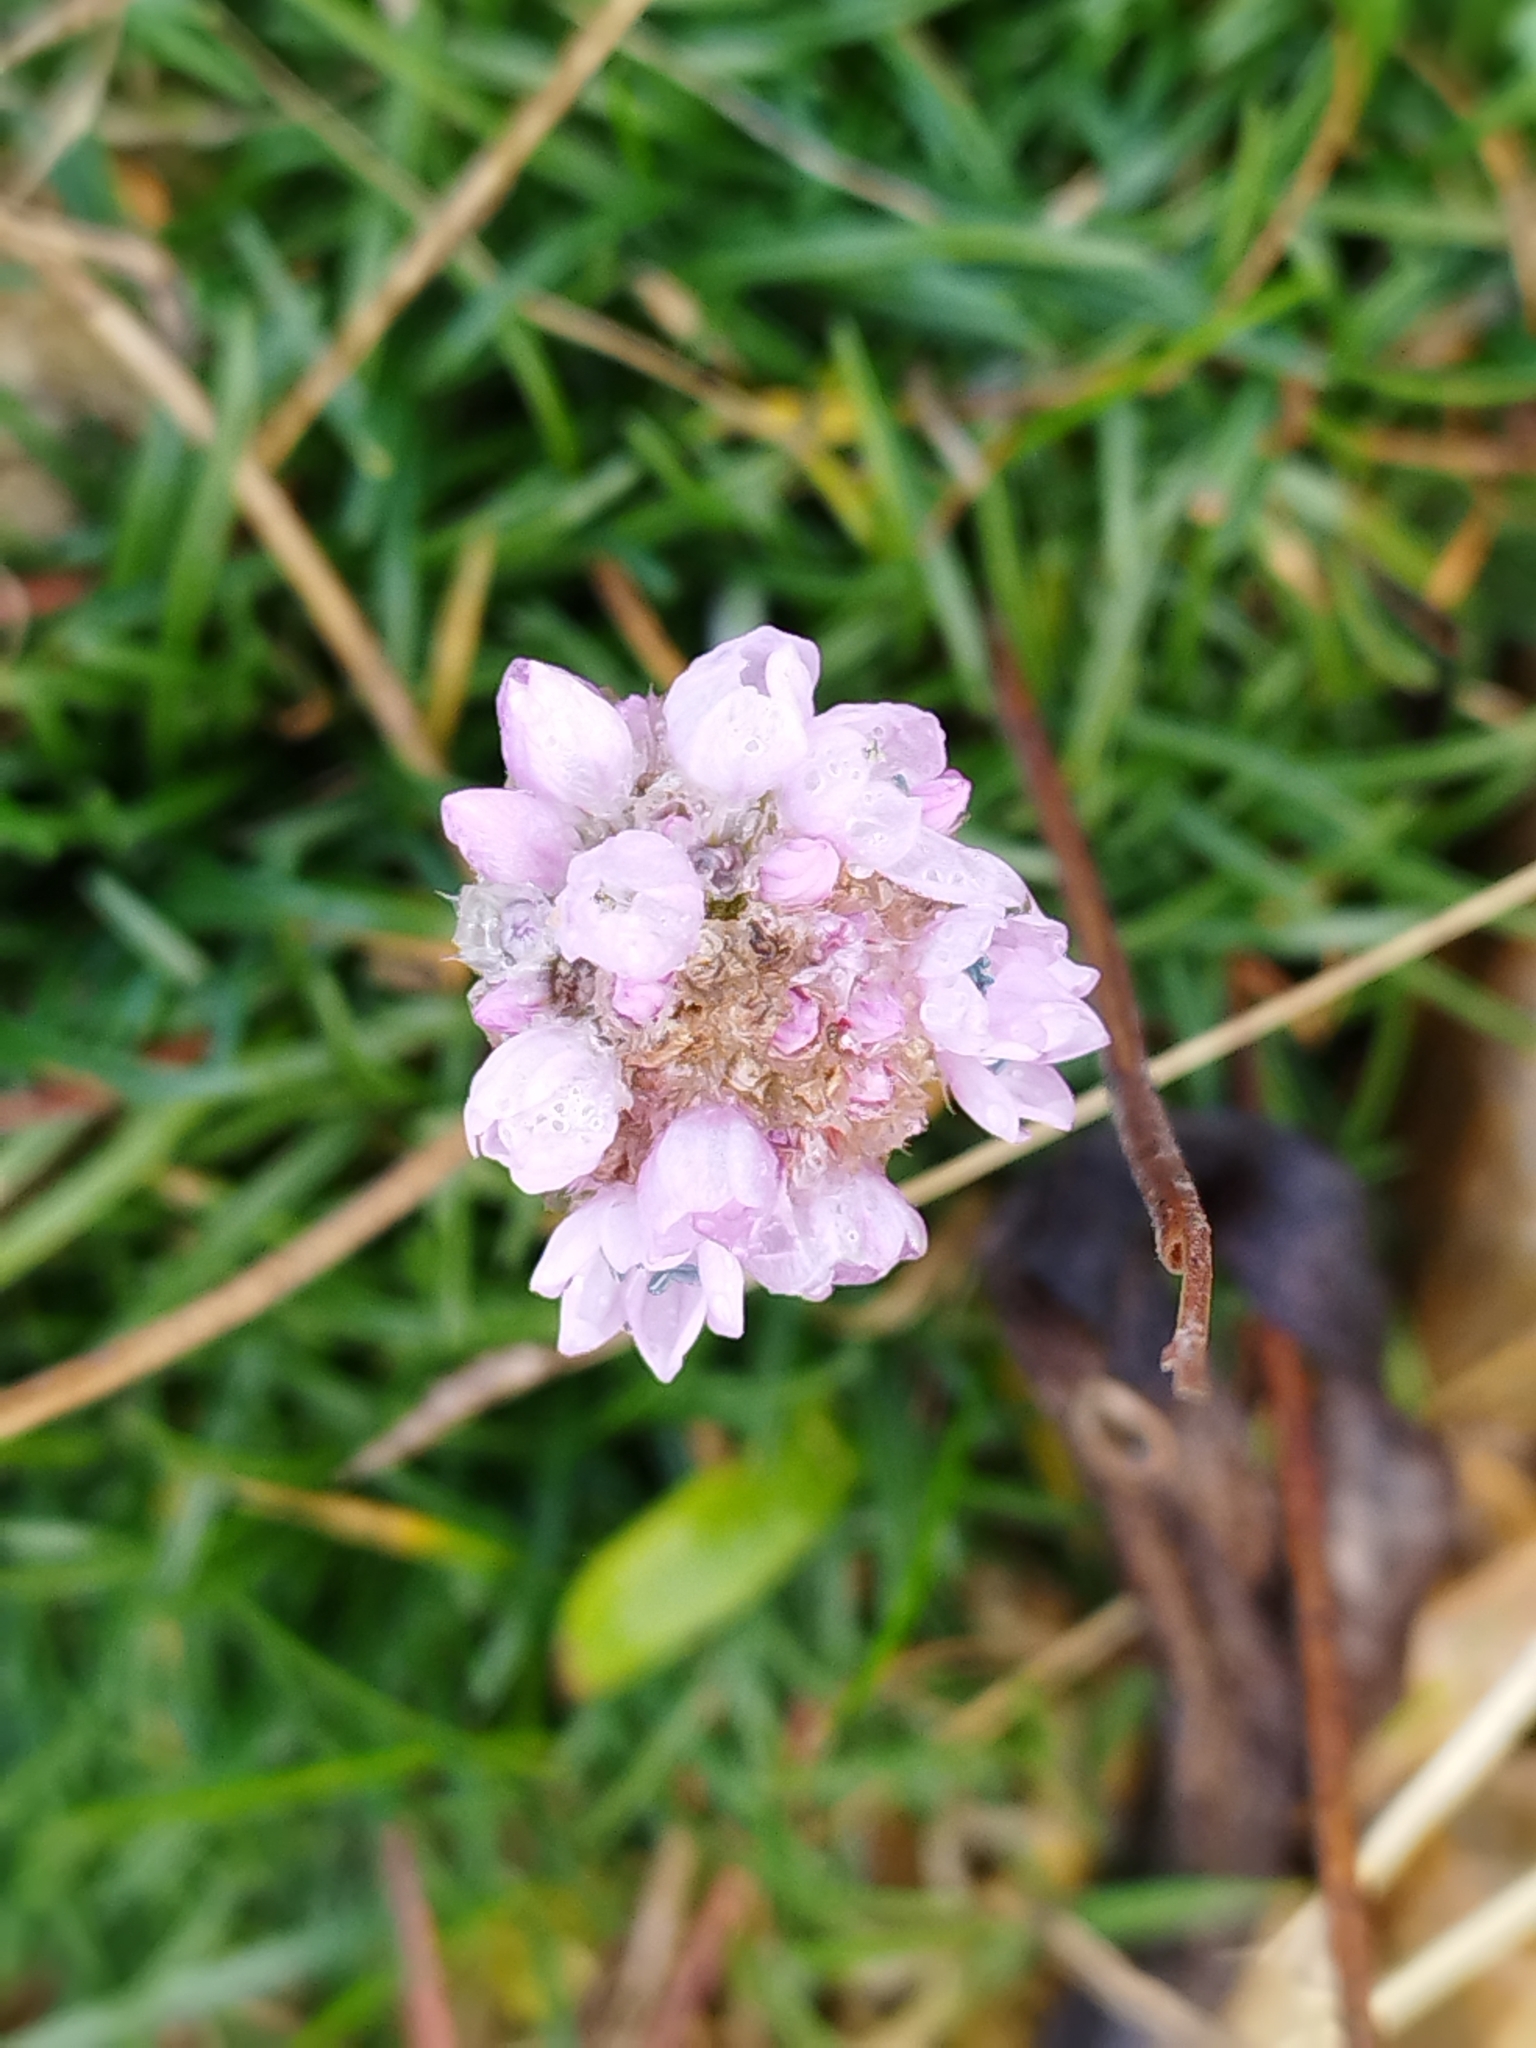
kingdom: Plantae
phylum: Tracheophyta
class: Magnoliopsida
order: Caryophyllales
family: Plumbaginaceae
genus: Armeria
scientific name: Armeria maritima
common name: Thrift
